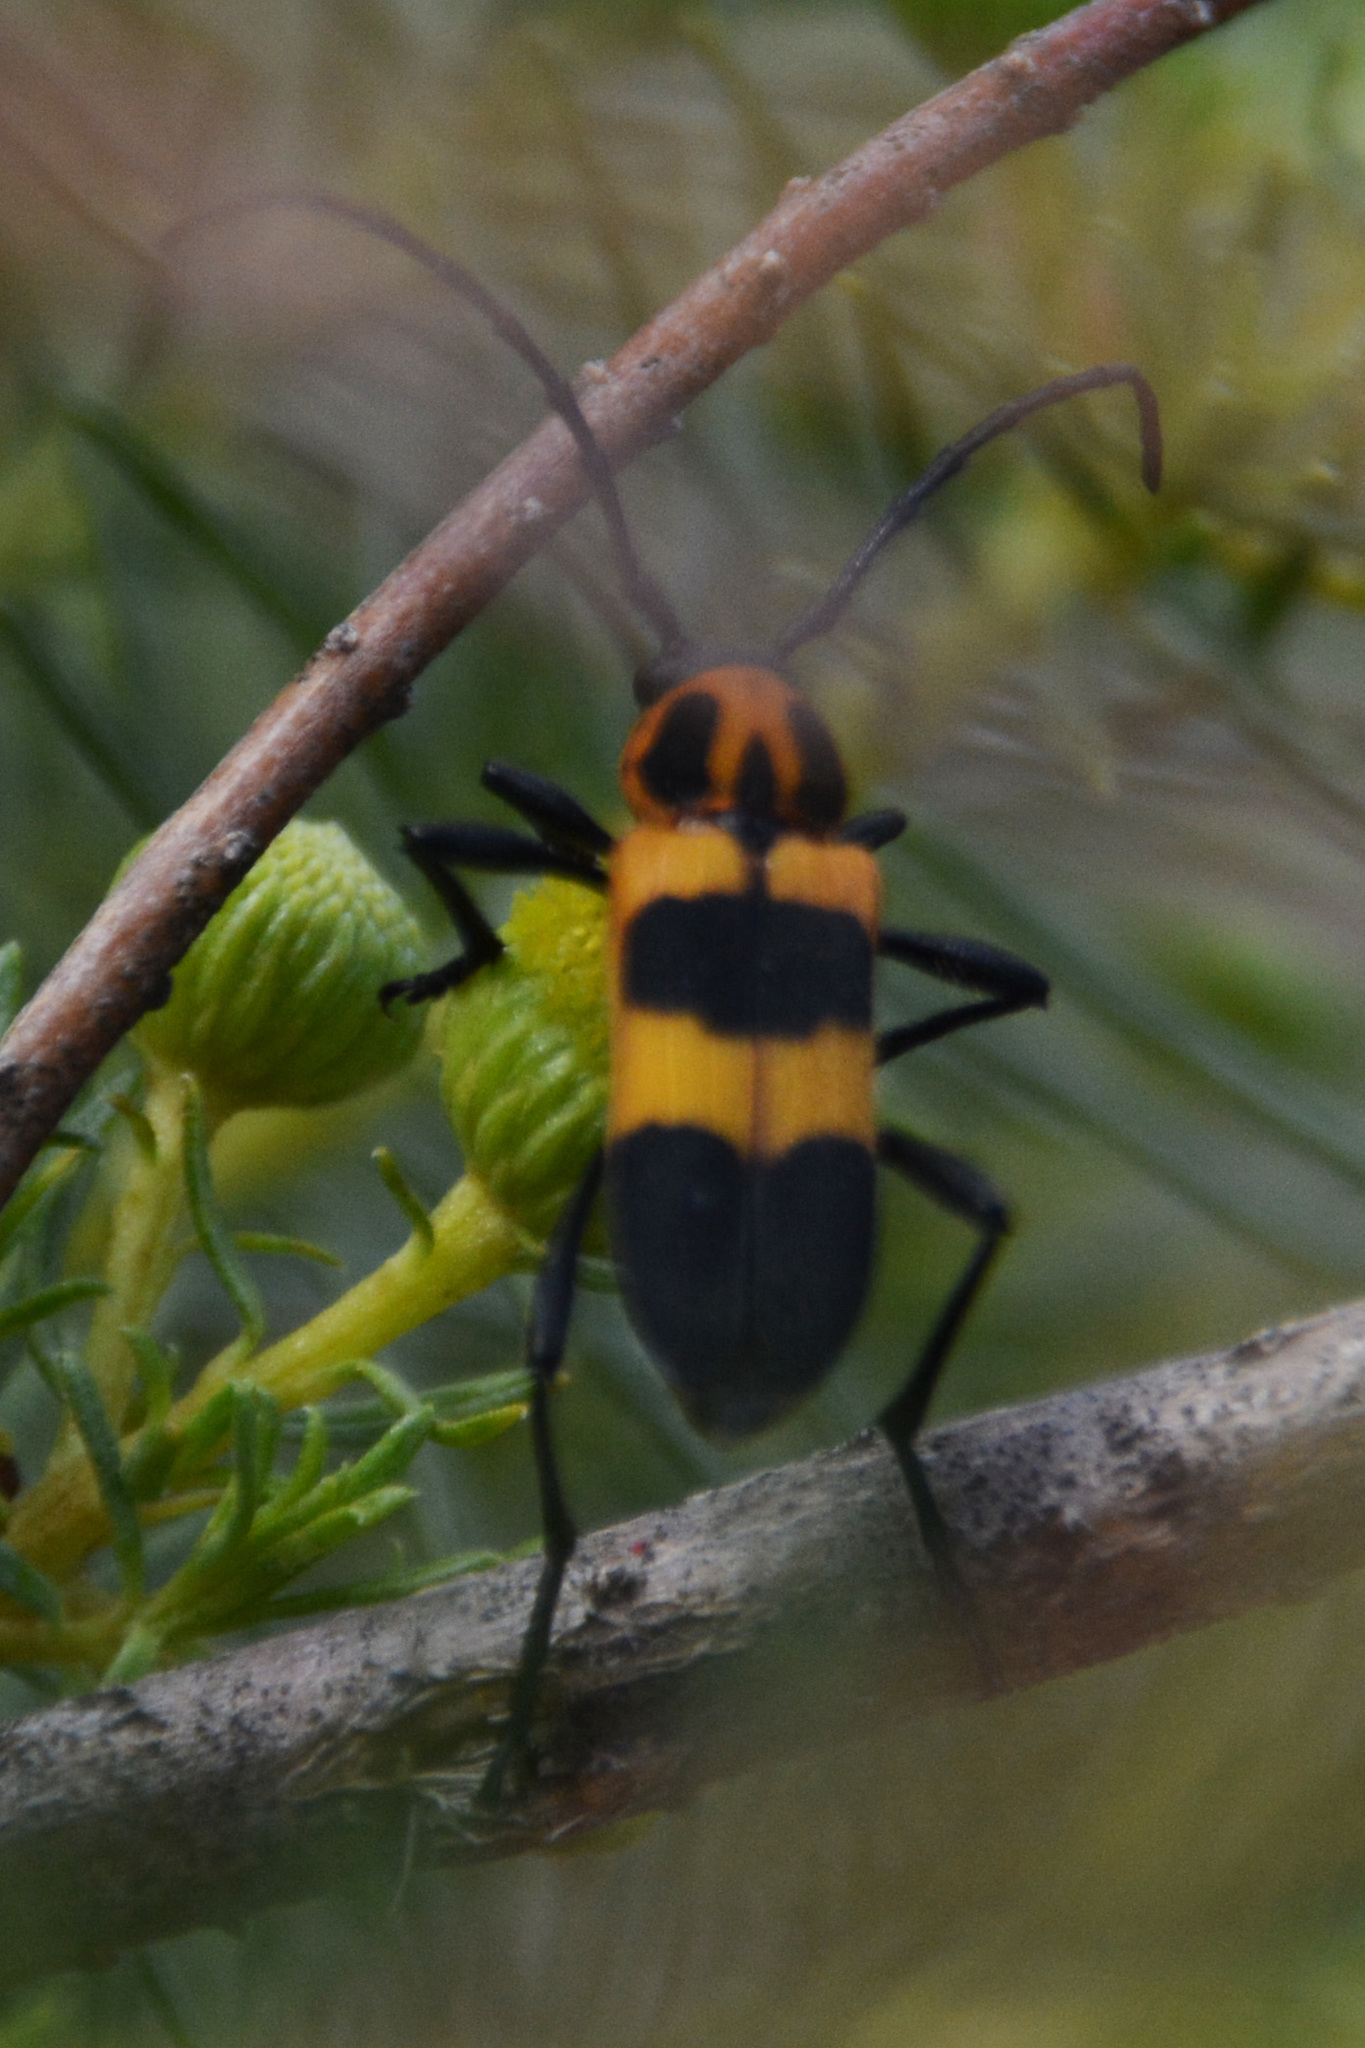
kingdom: Animalia
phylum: Arthropoda
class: Insecta
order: Coleoptera
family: Cerambycidae
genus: Erythrochiton
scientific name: Erythrochiton jucundum
